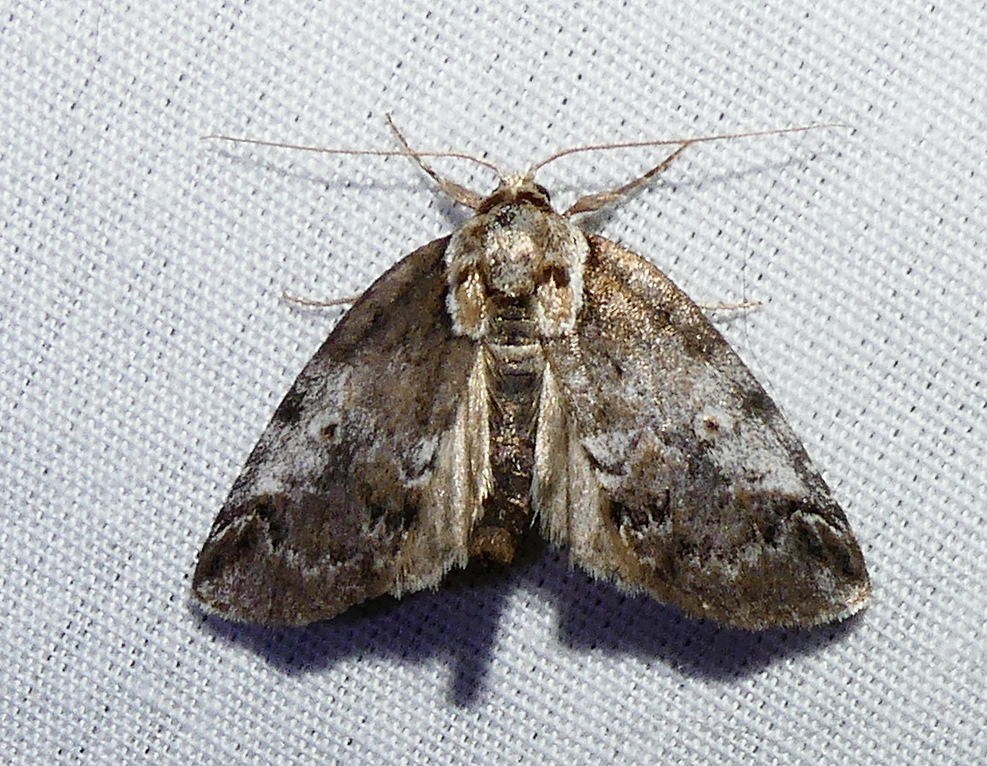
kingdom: Animalia
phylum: Arthropoda
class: Insecta
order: Lepidoptera
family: Nolidae
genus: Baileya
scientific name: Baileya ophthalmica
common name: Eyed baileya moth
